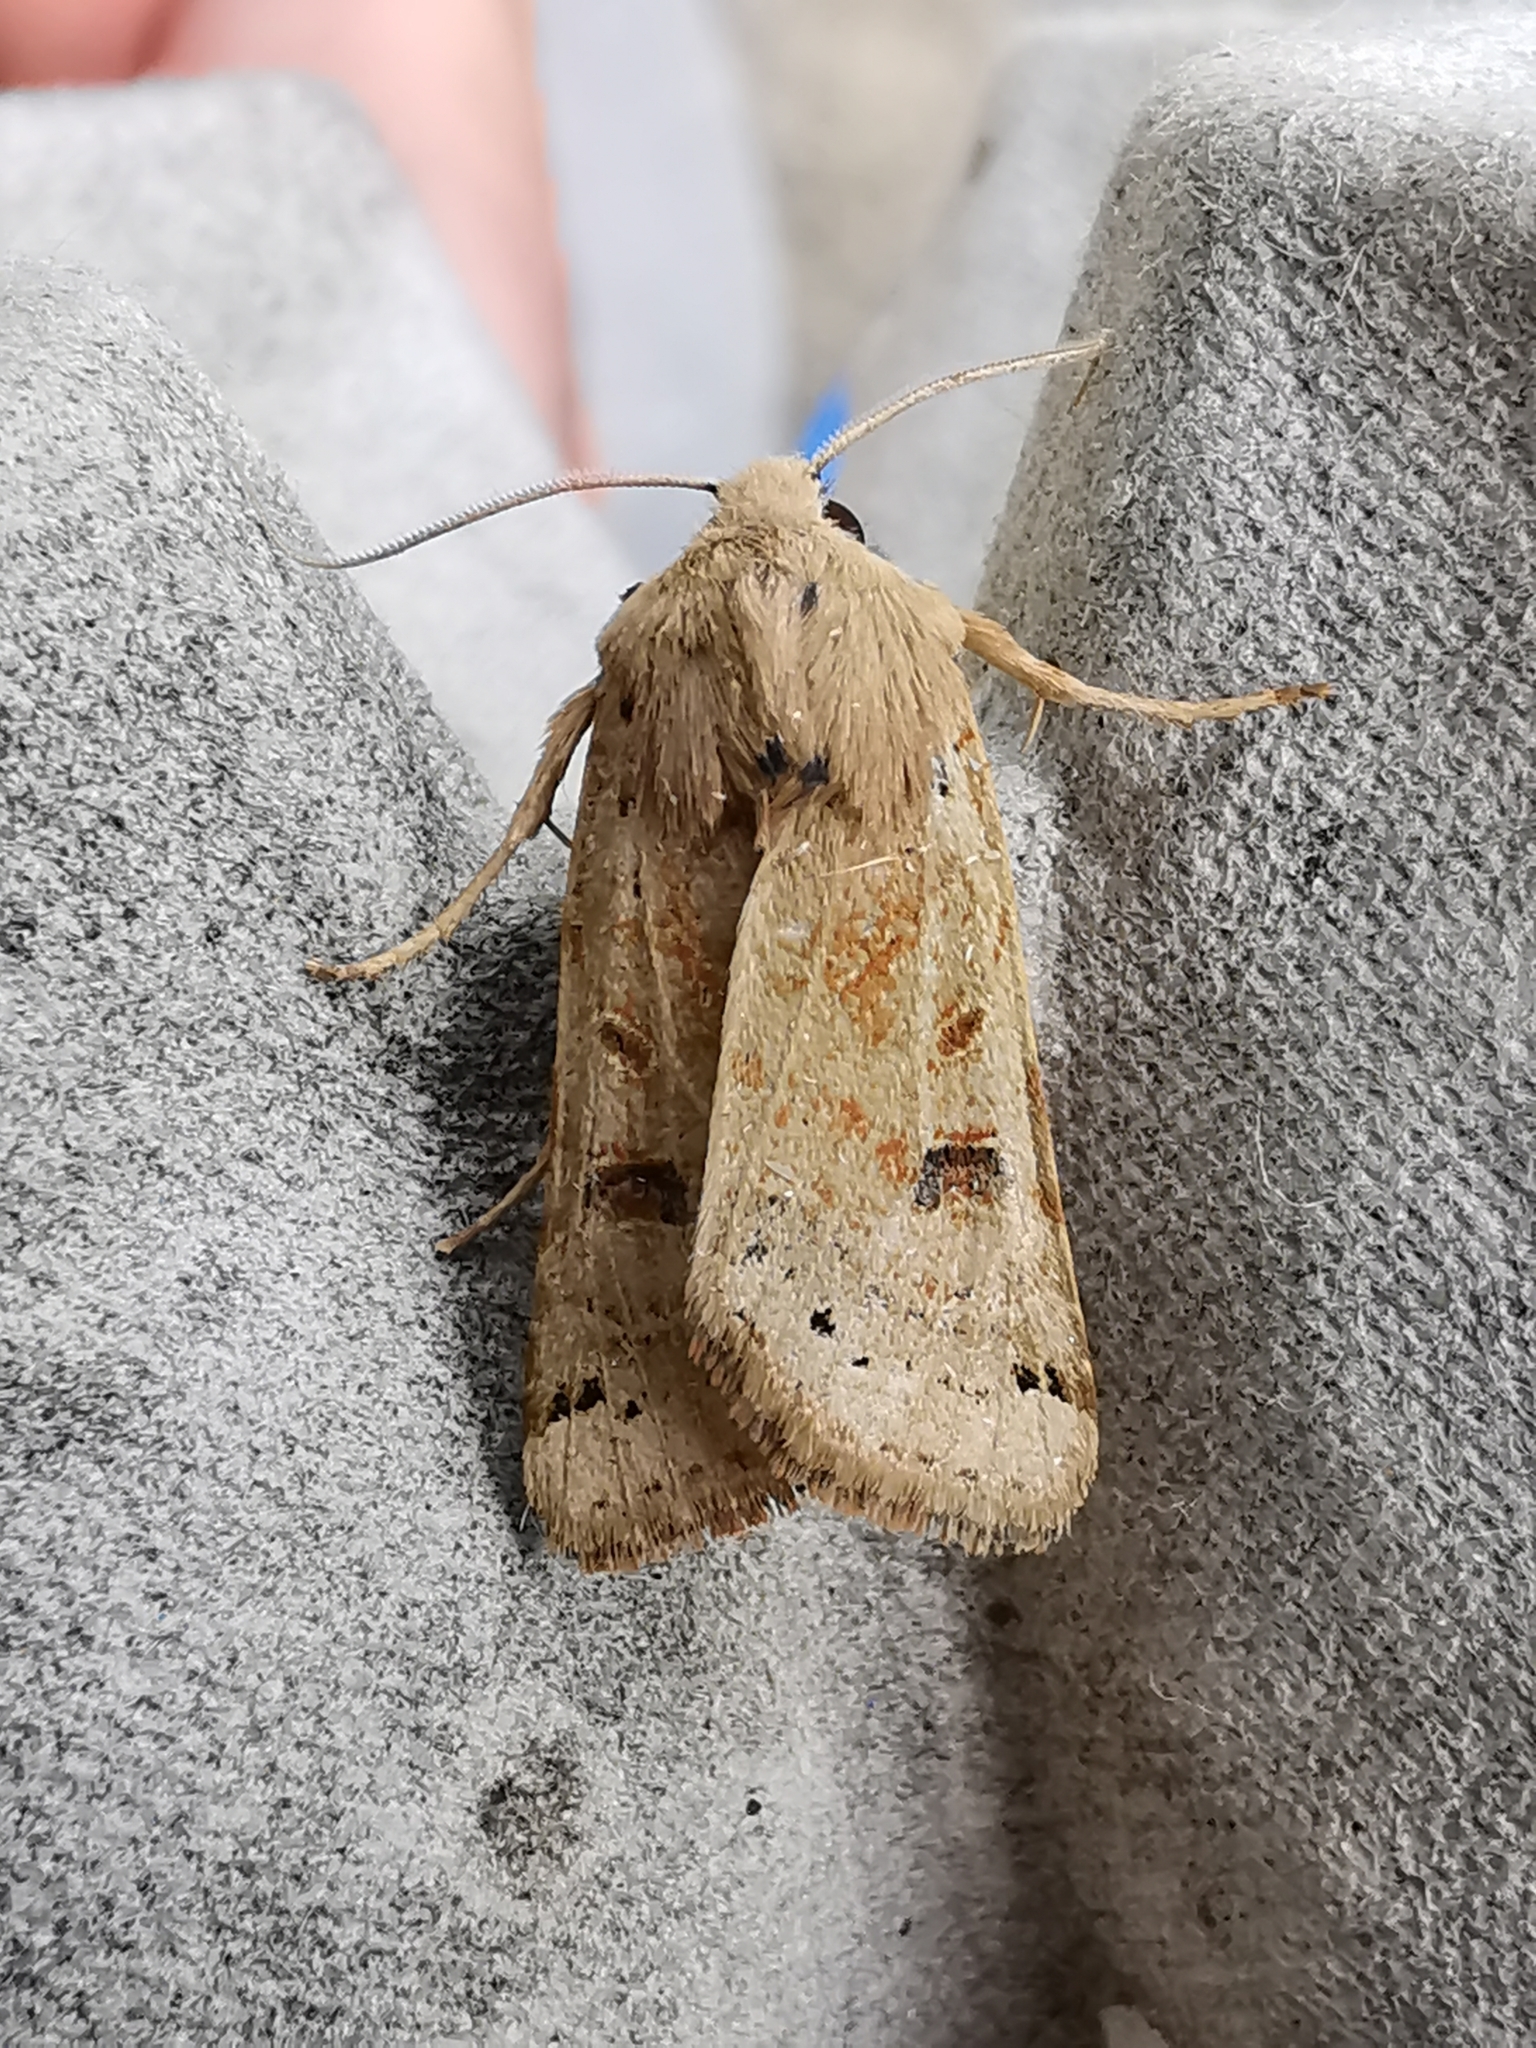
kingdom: Animalia
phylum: Arthropoda
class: Insecta
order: Lepidoptera
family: Noctuidae
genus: Agrochola
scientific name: Agrochola lunosa
